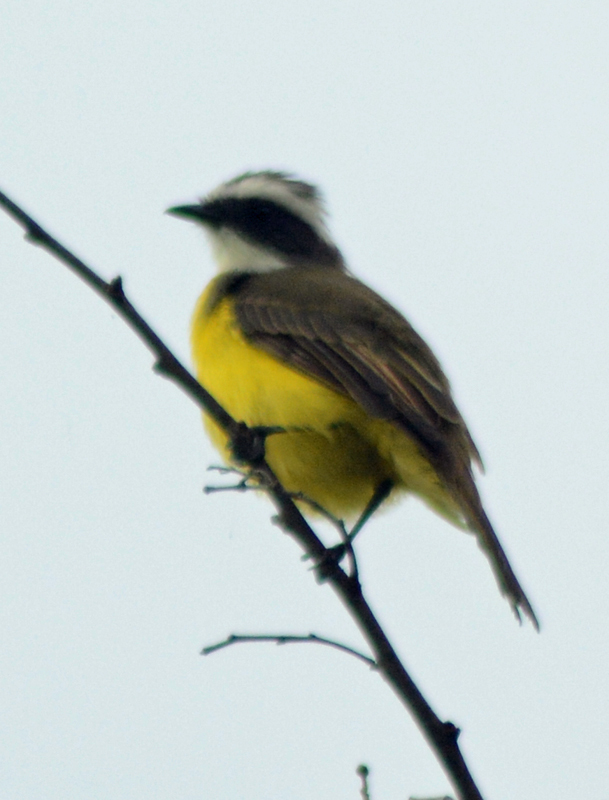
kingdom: Animalia
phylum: Chordata
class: Aves
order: Passeriformes
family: Tyrannidae
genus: Myiozetetes
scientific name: Myiozetetes similis
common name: Social flycatcher
